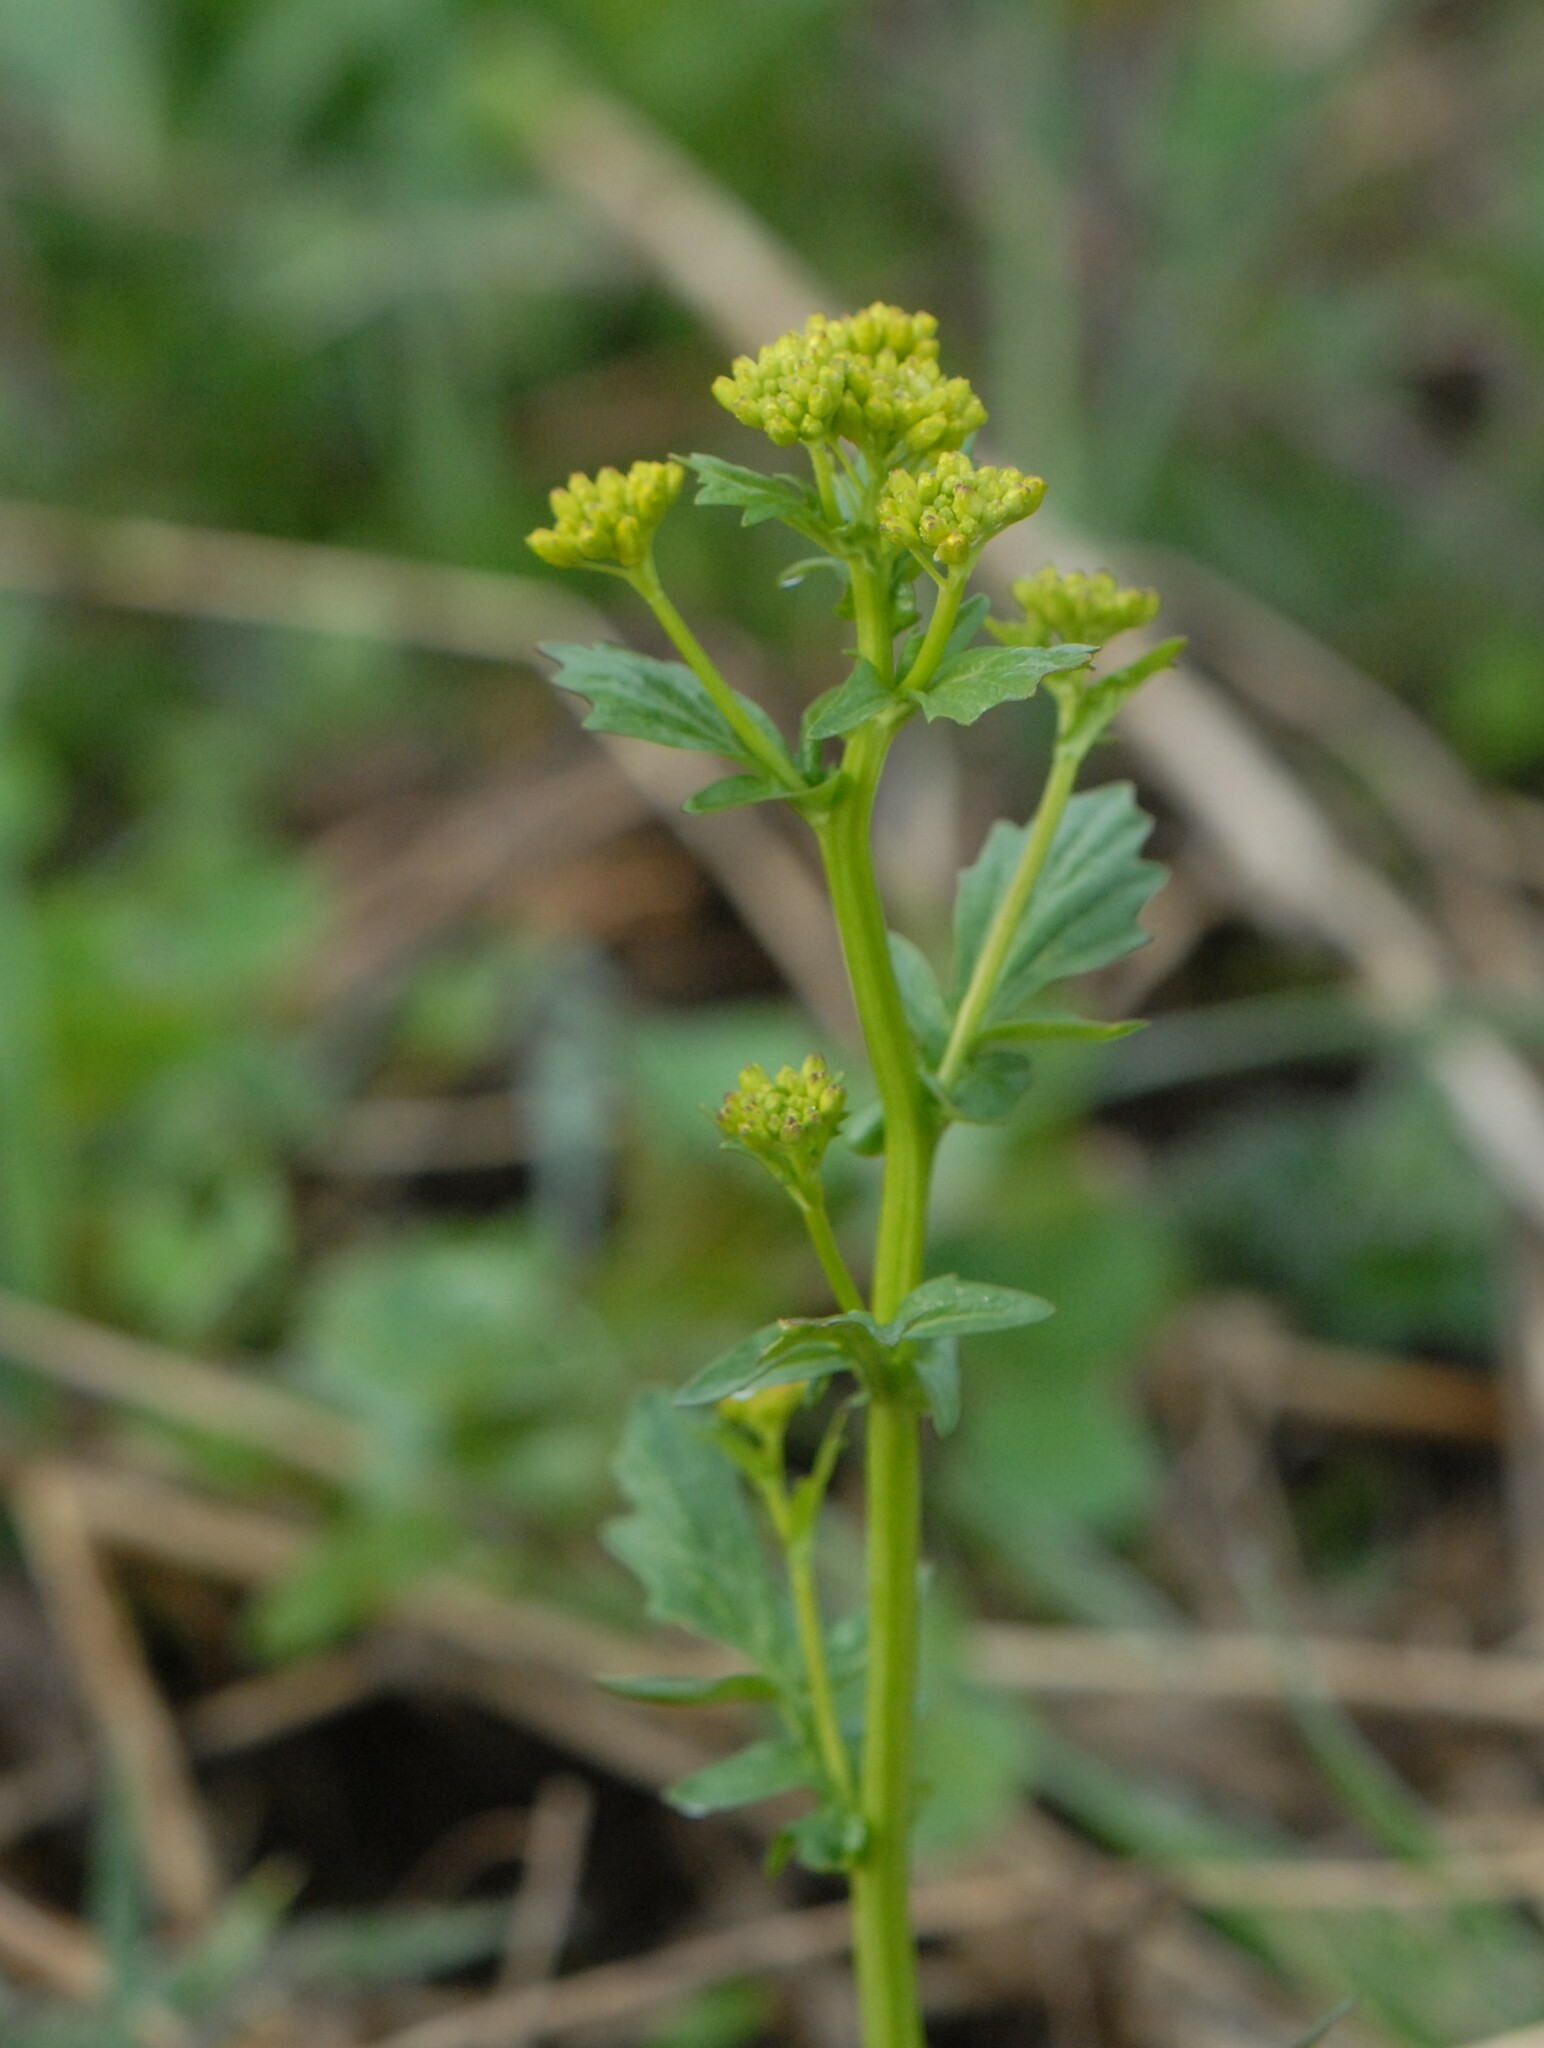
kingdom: Plantae
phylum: Tracheophyta
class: Magnoliopsida
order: Brassicales
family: Brassicaceae
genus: Barbarea
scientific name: Barbarea vulgaris
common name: Cressy-greens
